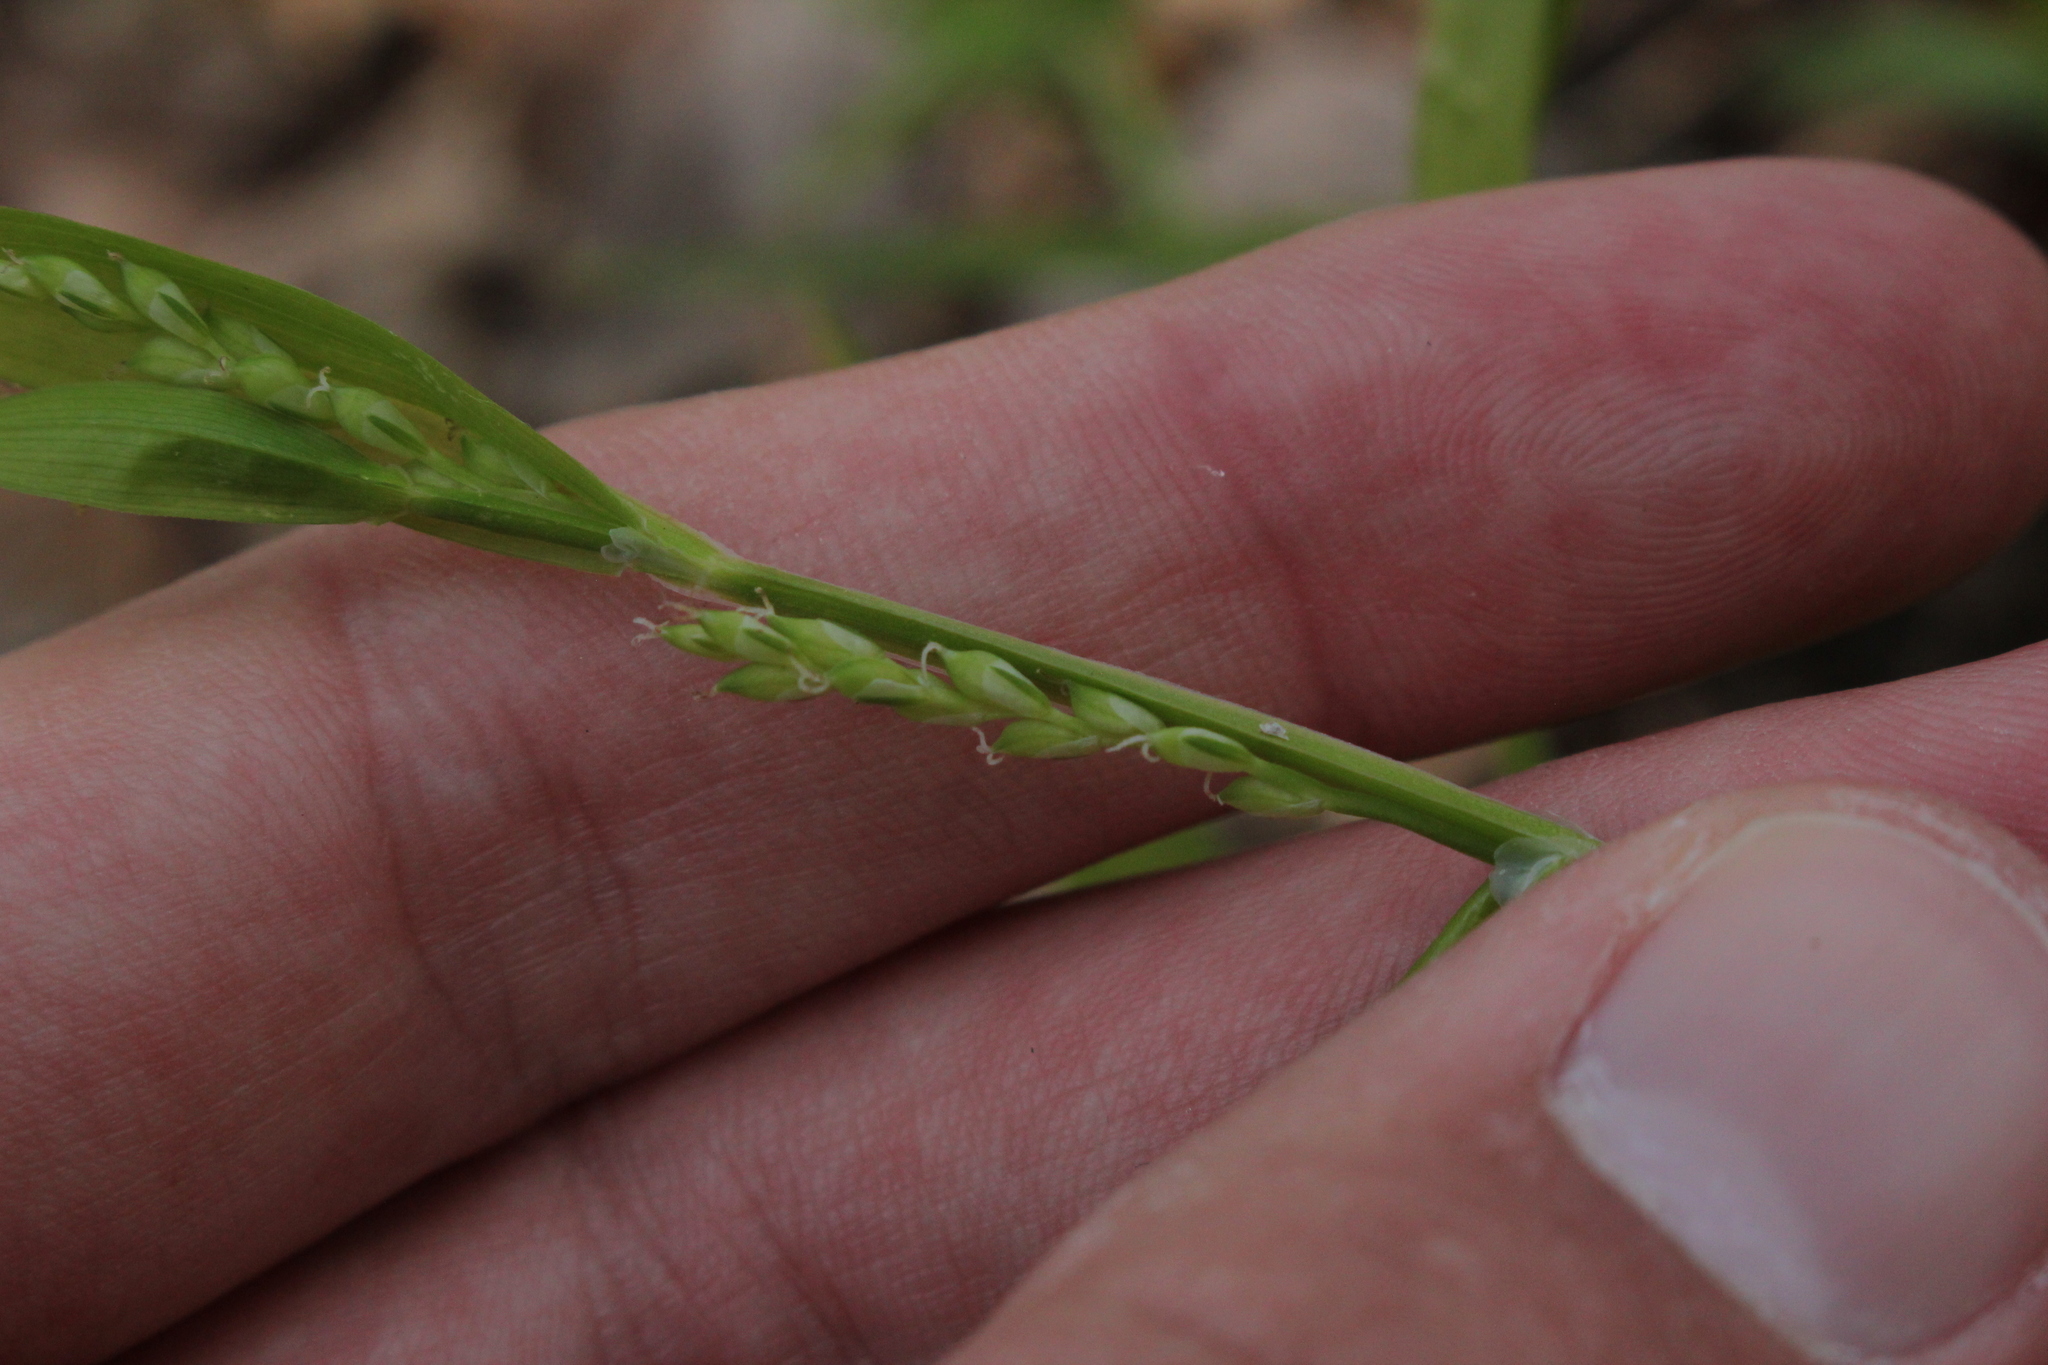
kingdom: Plantae
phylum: Tracheophyta
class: Liliopsida
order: Poales
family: Cyperaceae
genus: Carex
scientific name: Carex albursina
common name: Blunt-scale wood sedge
